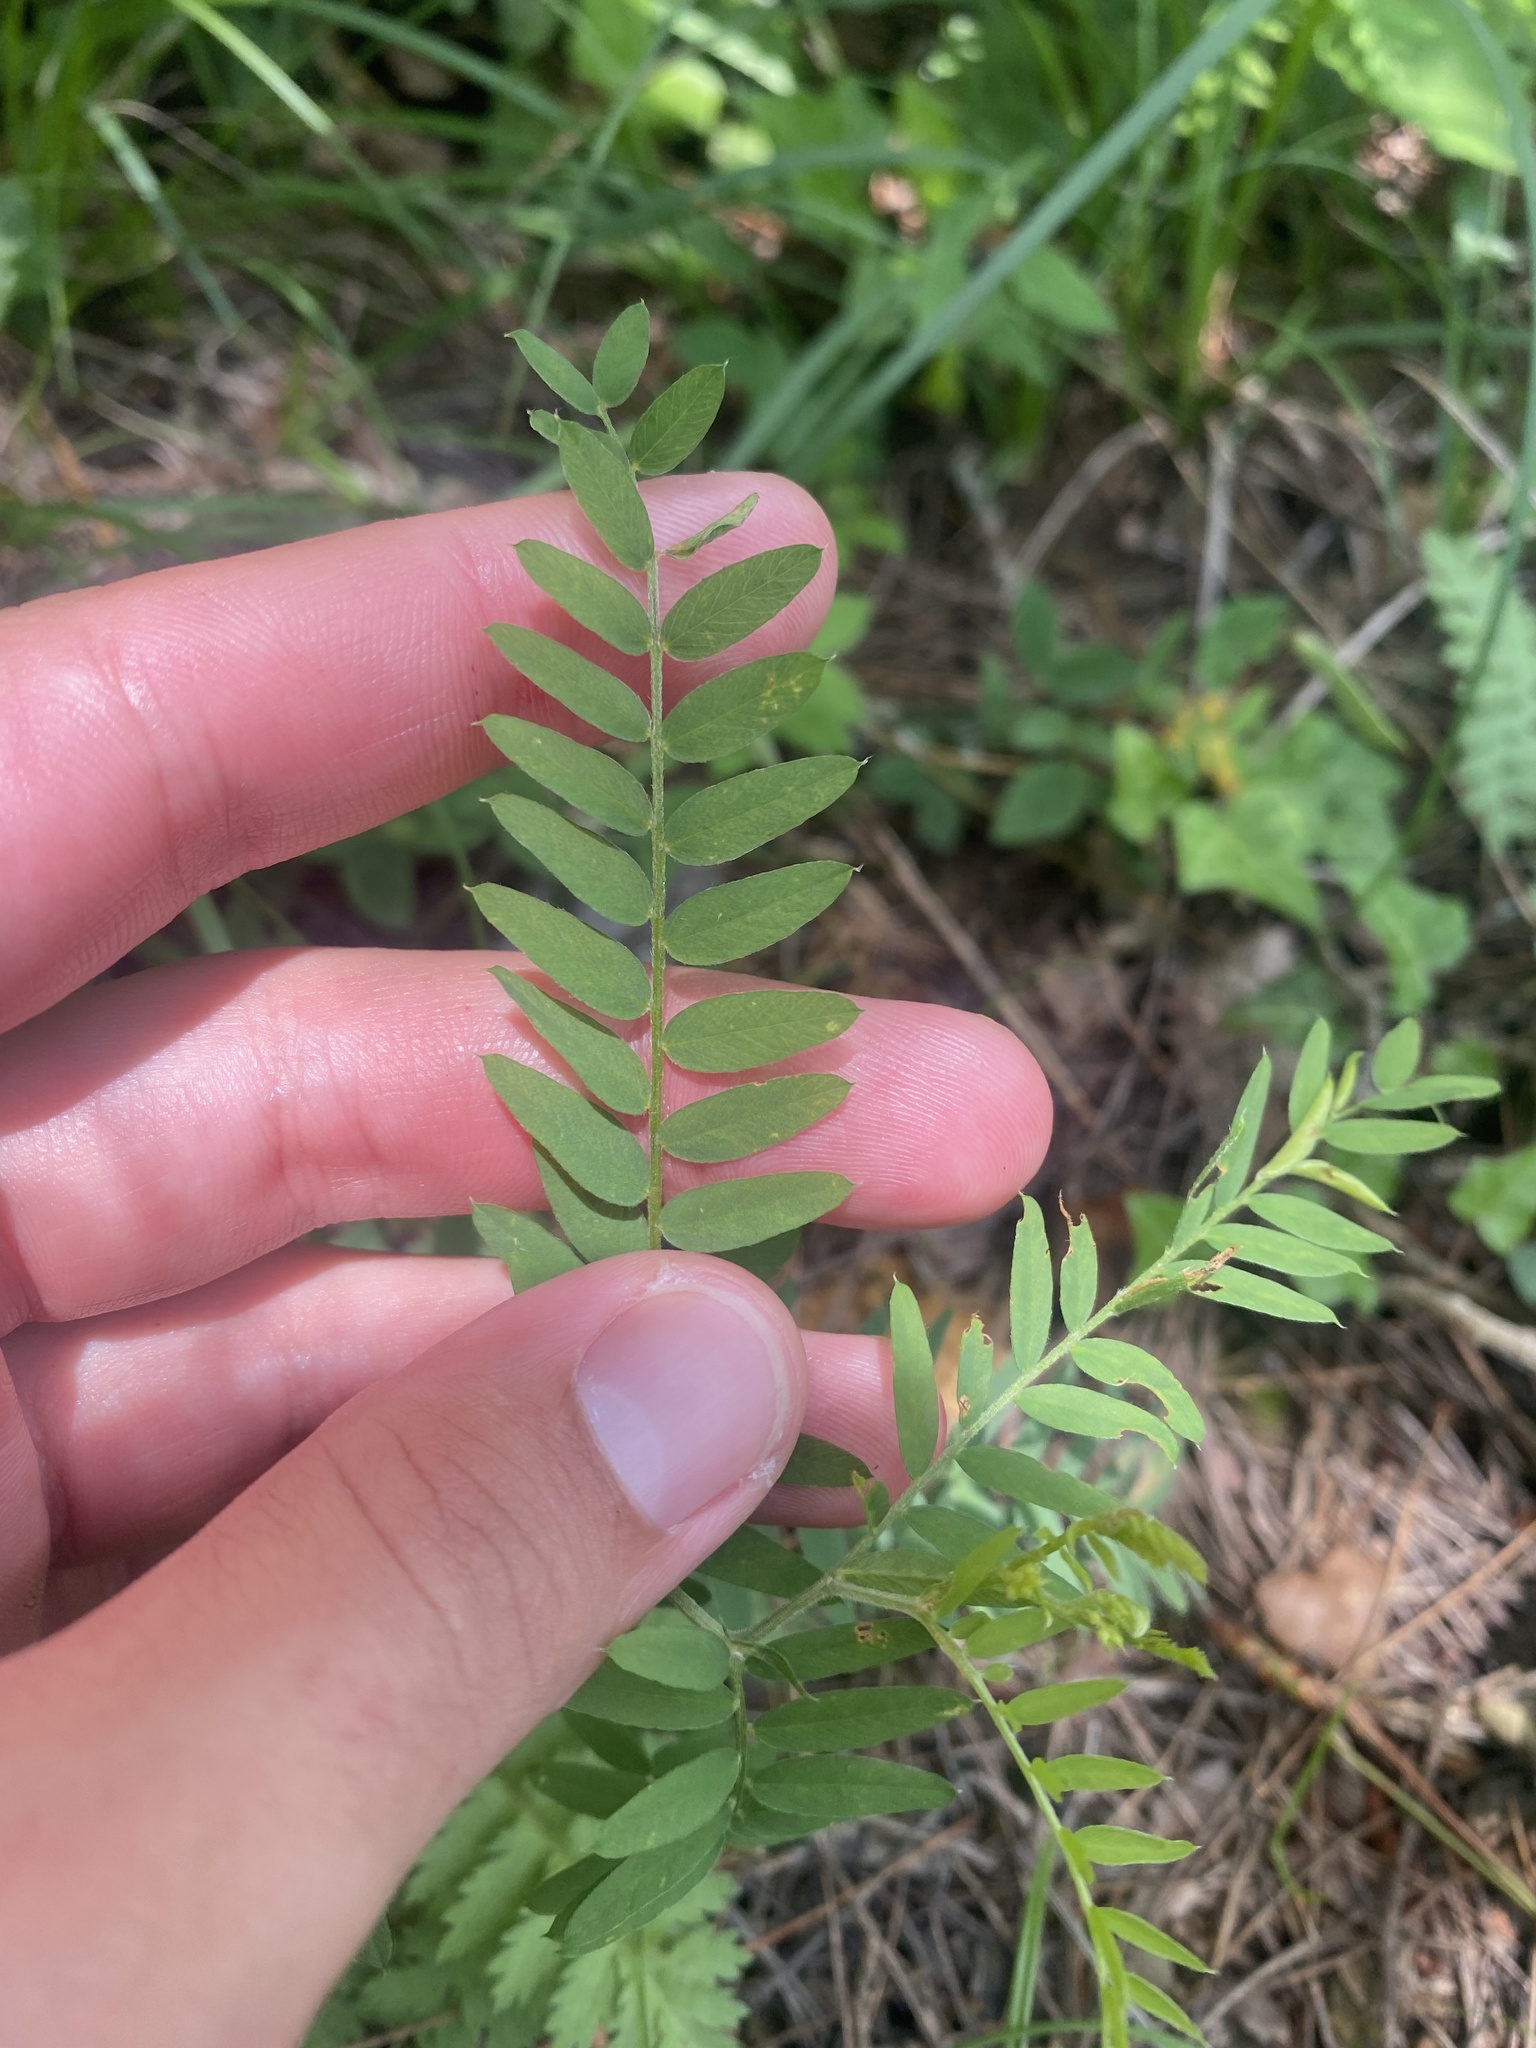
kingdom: Plantae
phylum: Tracheophyta
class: Magnoliopsida
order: Fabales
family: Fabaceae
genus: Vicia
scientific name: Vicia cassubica
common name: Danzig vetch
